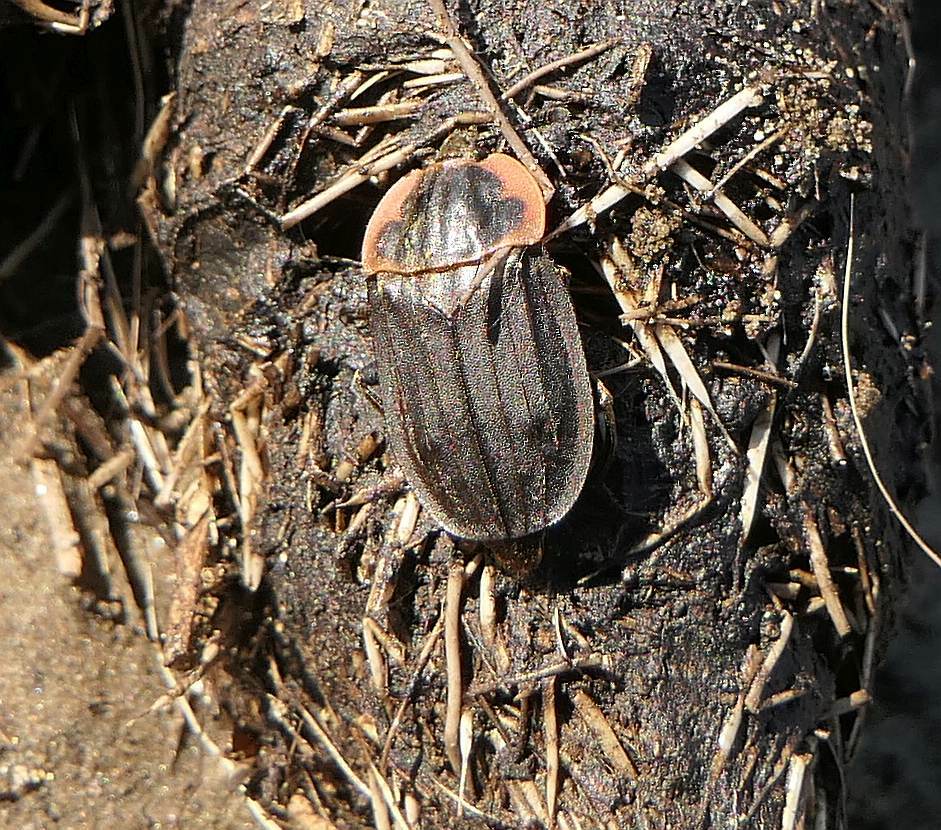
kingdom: Animalia
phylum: Arthropoda
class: Insecta
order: Coleoptera
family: Staphylinidae
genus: Oiceoptoma
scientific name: Oiceoptoma noveboracense
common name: Margined carrion beetle
